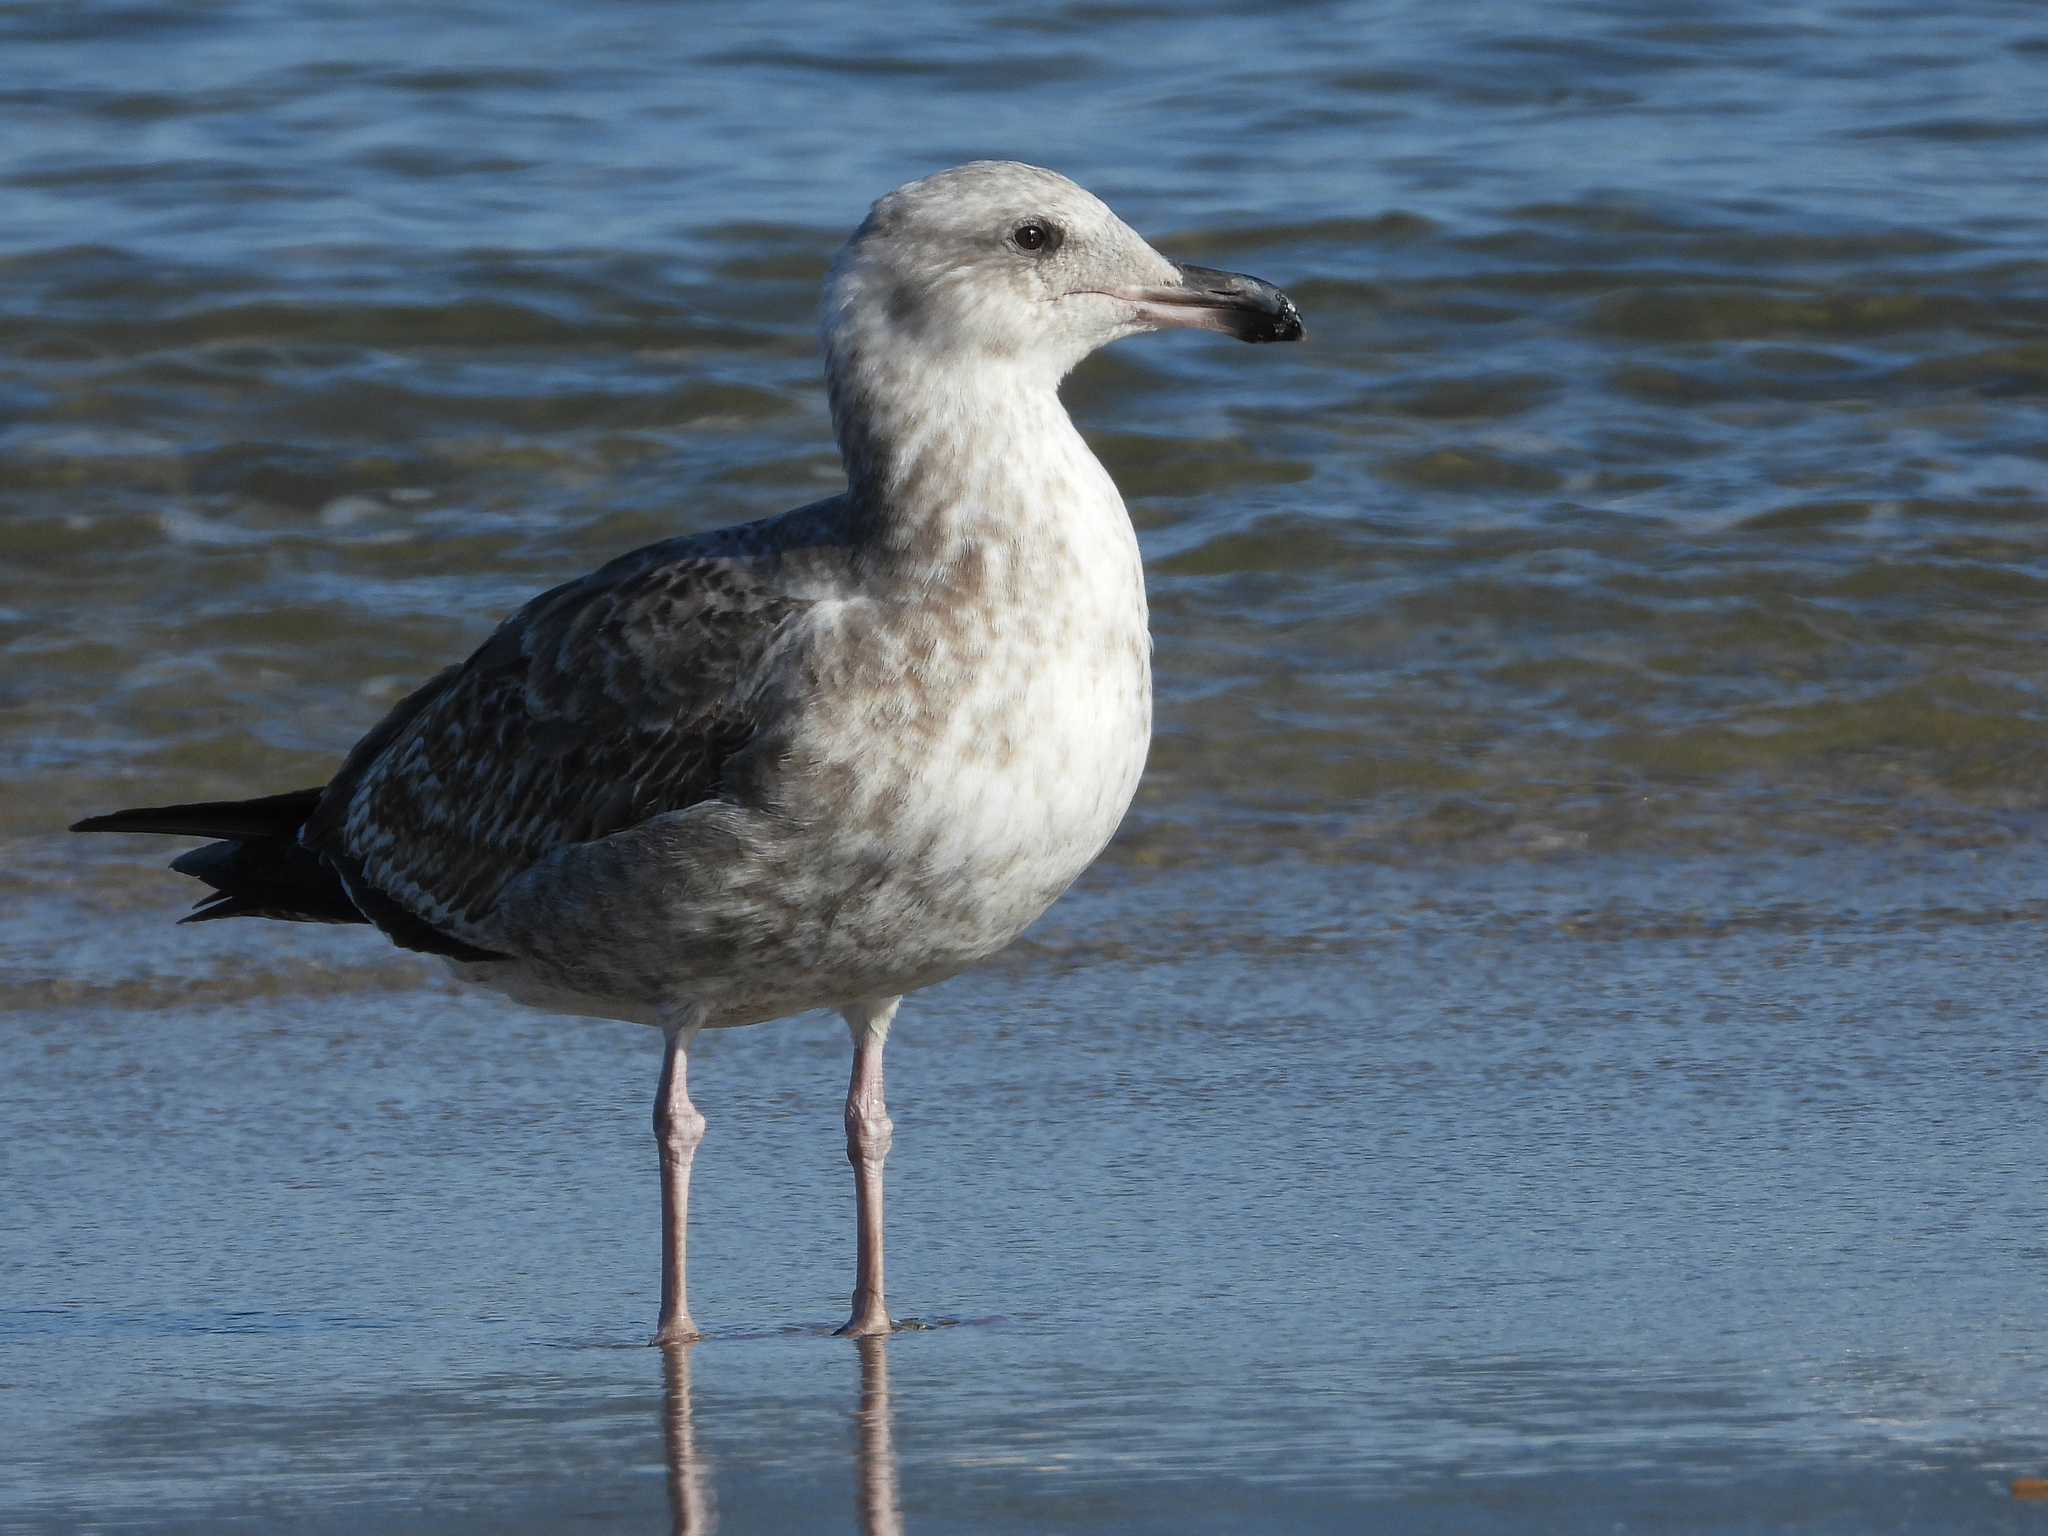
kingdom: Animalia
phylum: Chordata
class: Aves
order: Charadriiformes
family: Laridae
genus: Larus
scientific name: Larus occidentalis
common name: Western gull
